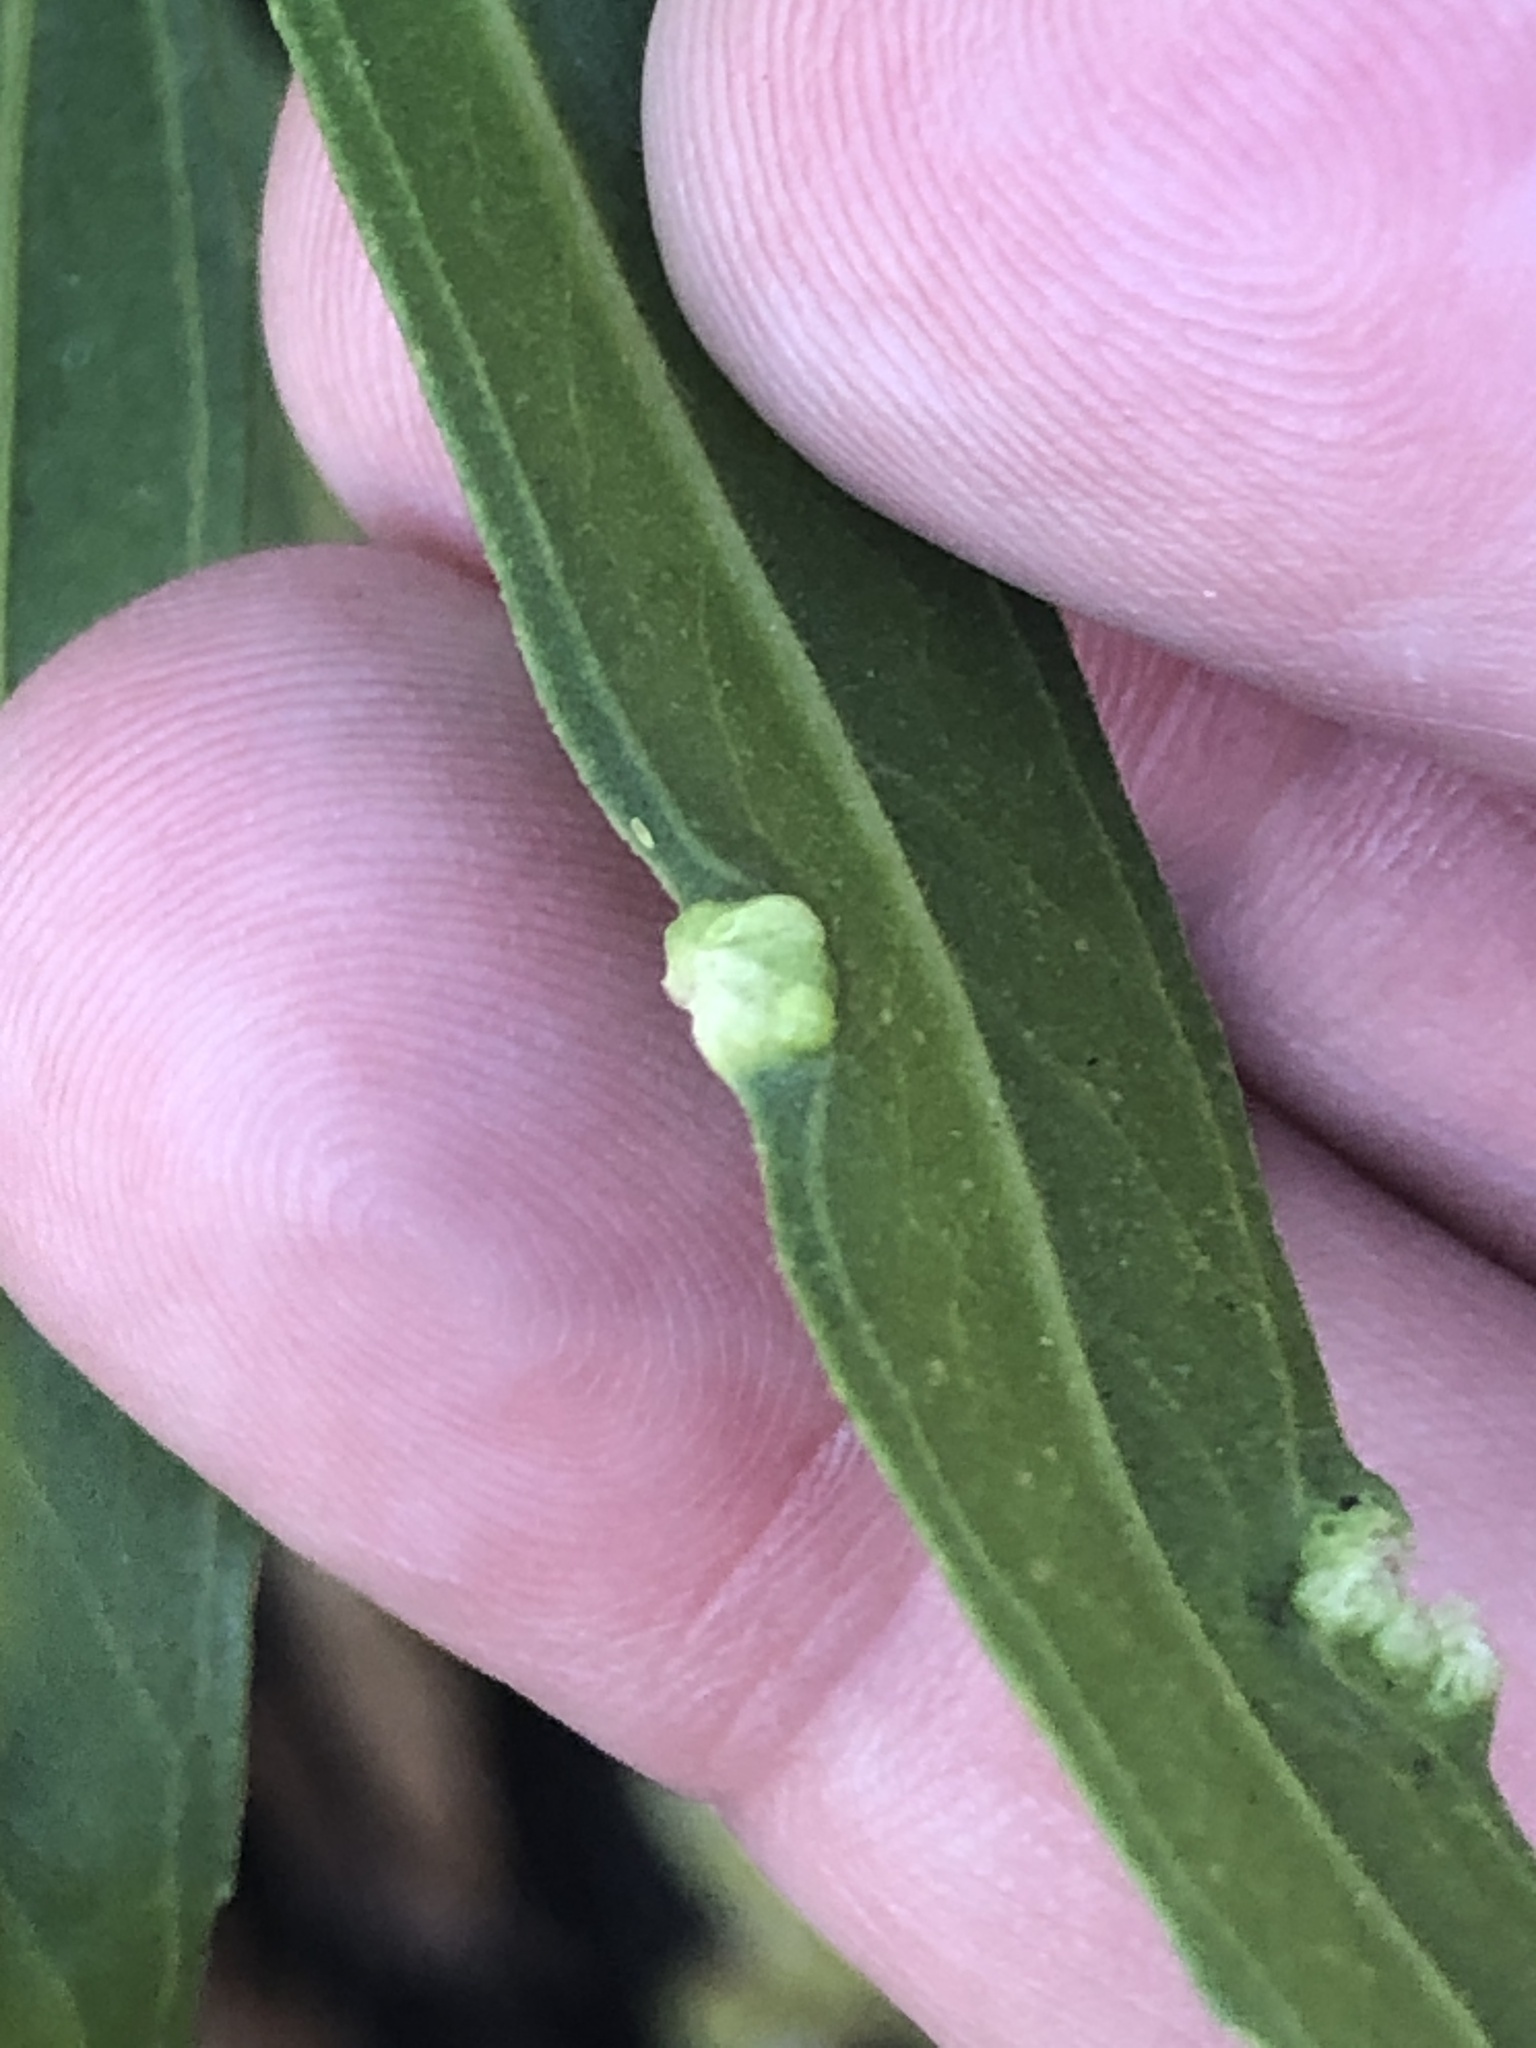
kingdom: Animalia
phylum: Arthropoda
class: Arachnida
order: Trombidiformes
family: Eriophyidae
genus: Aceria
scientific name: Aceria
